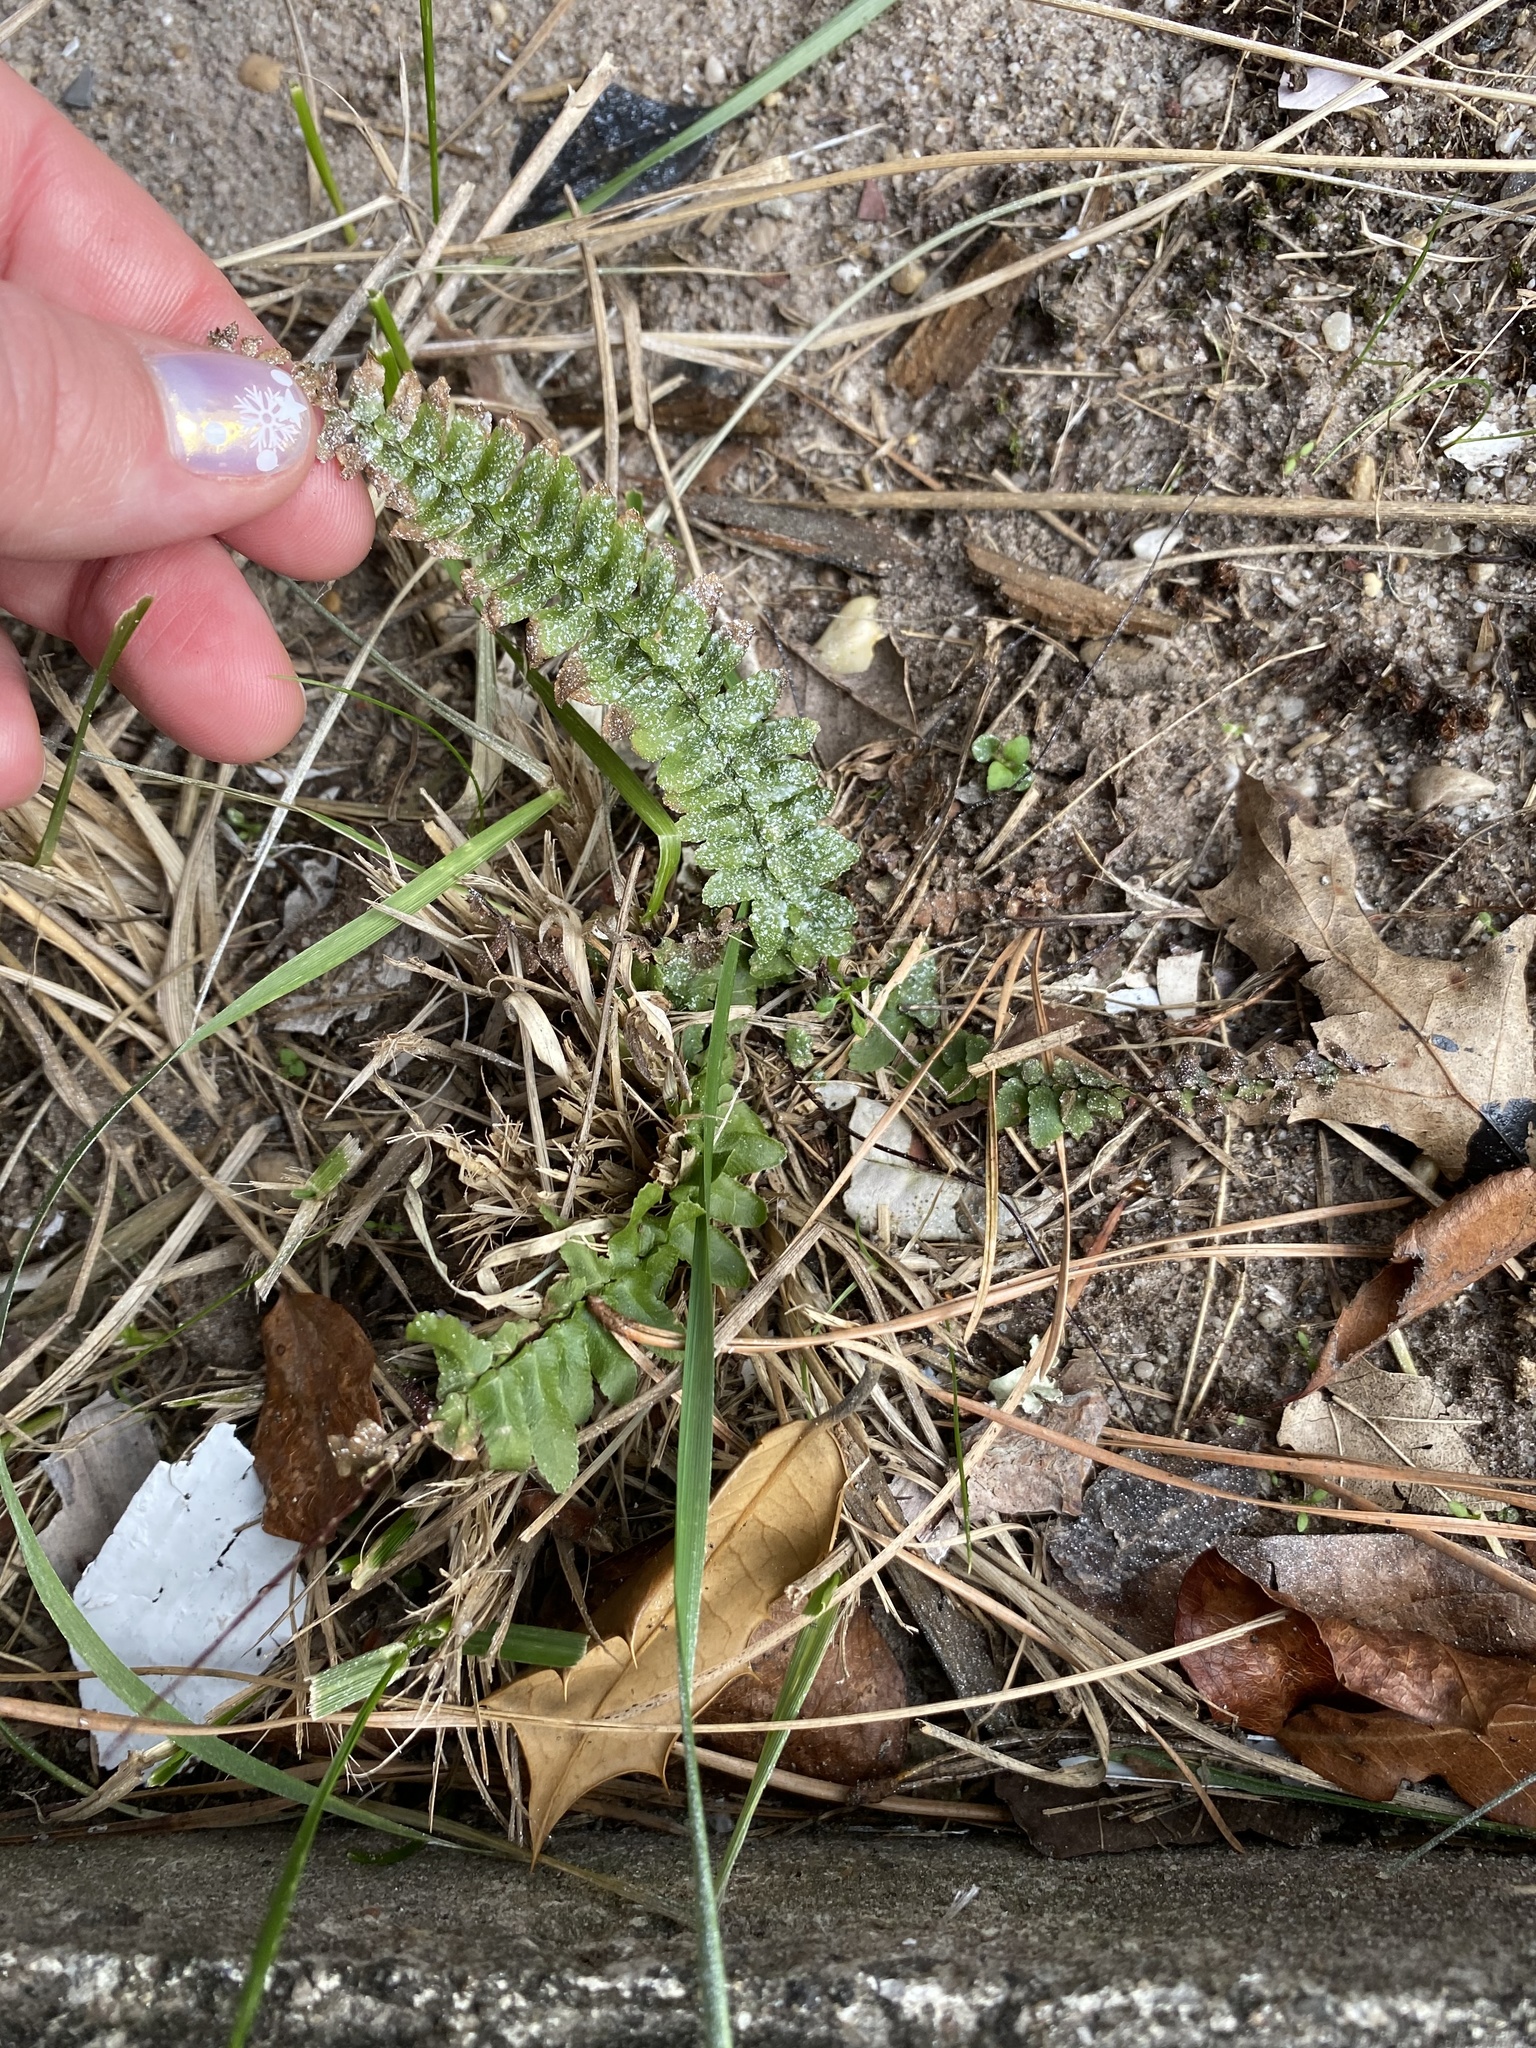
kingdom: Plantae
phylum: Tracheophyta
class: Polypodiopsida
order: Polypodiales
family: Aspleniaceae
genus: Asplenium
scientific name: Asplenium platyneuron
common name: Ebony spleenwort
